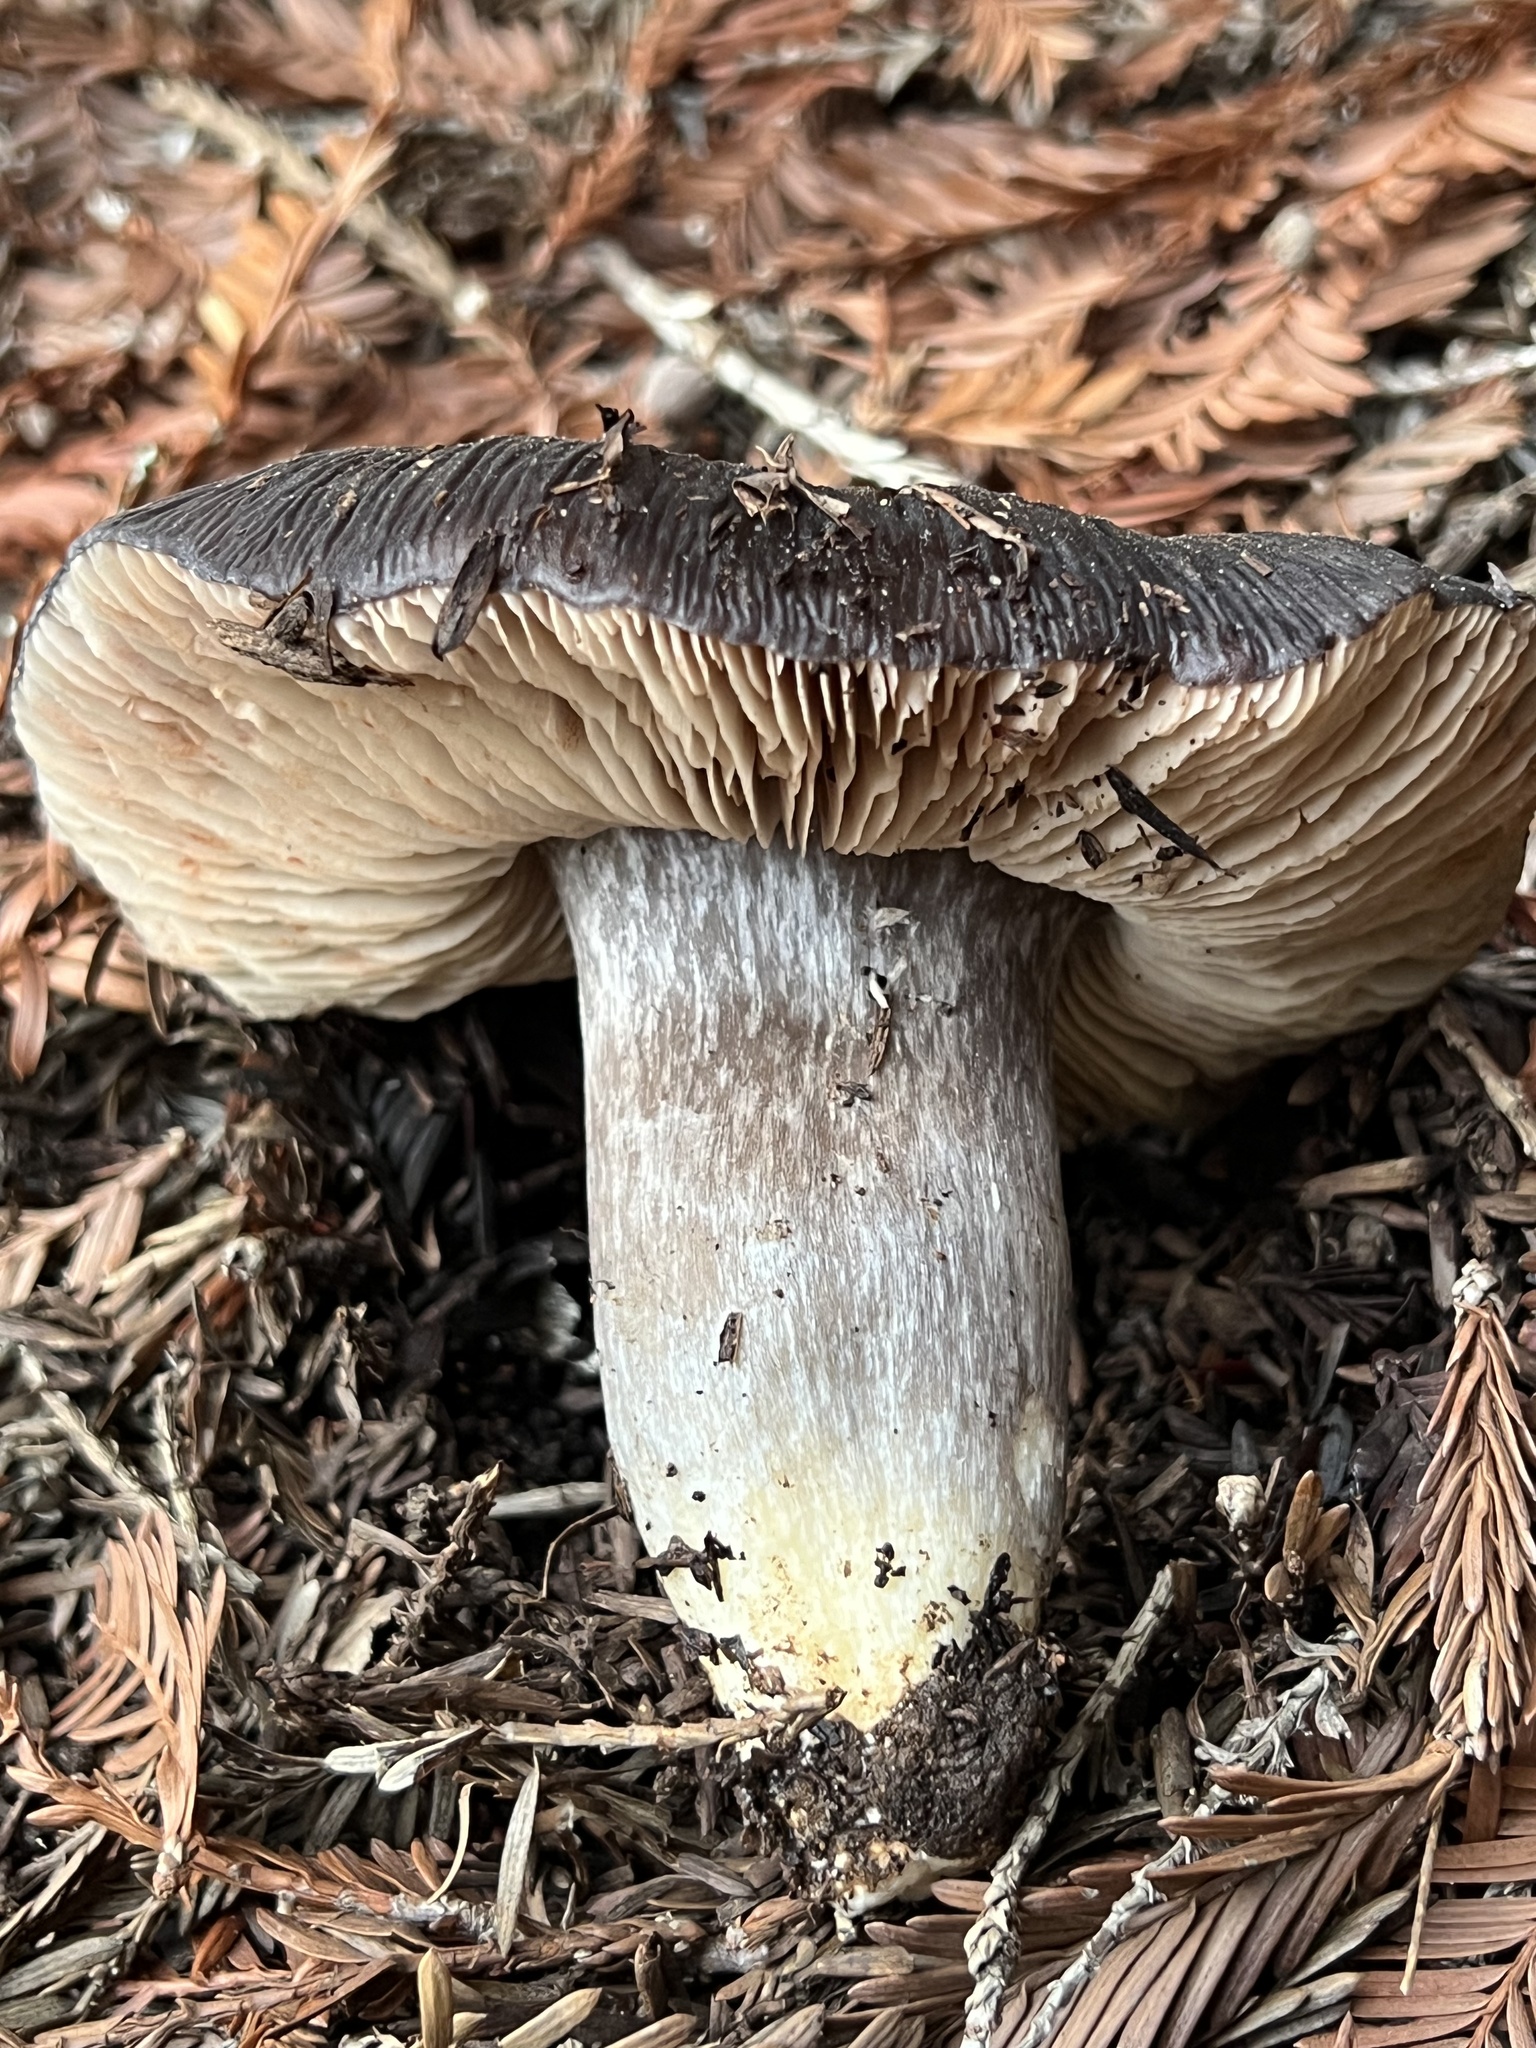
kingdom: Fungi
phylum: Basidiomycota
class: Agaricomycetes
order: Agaricales
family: Entolomataceae
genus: Entoloma
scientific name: Entoloma medianox
